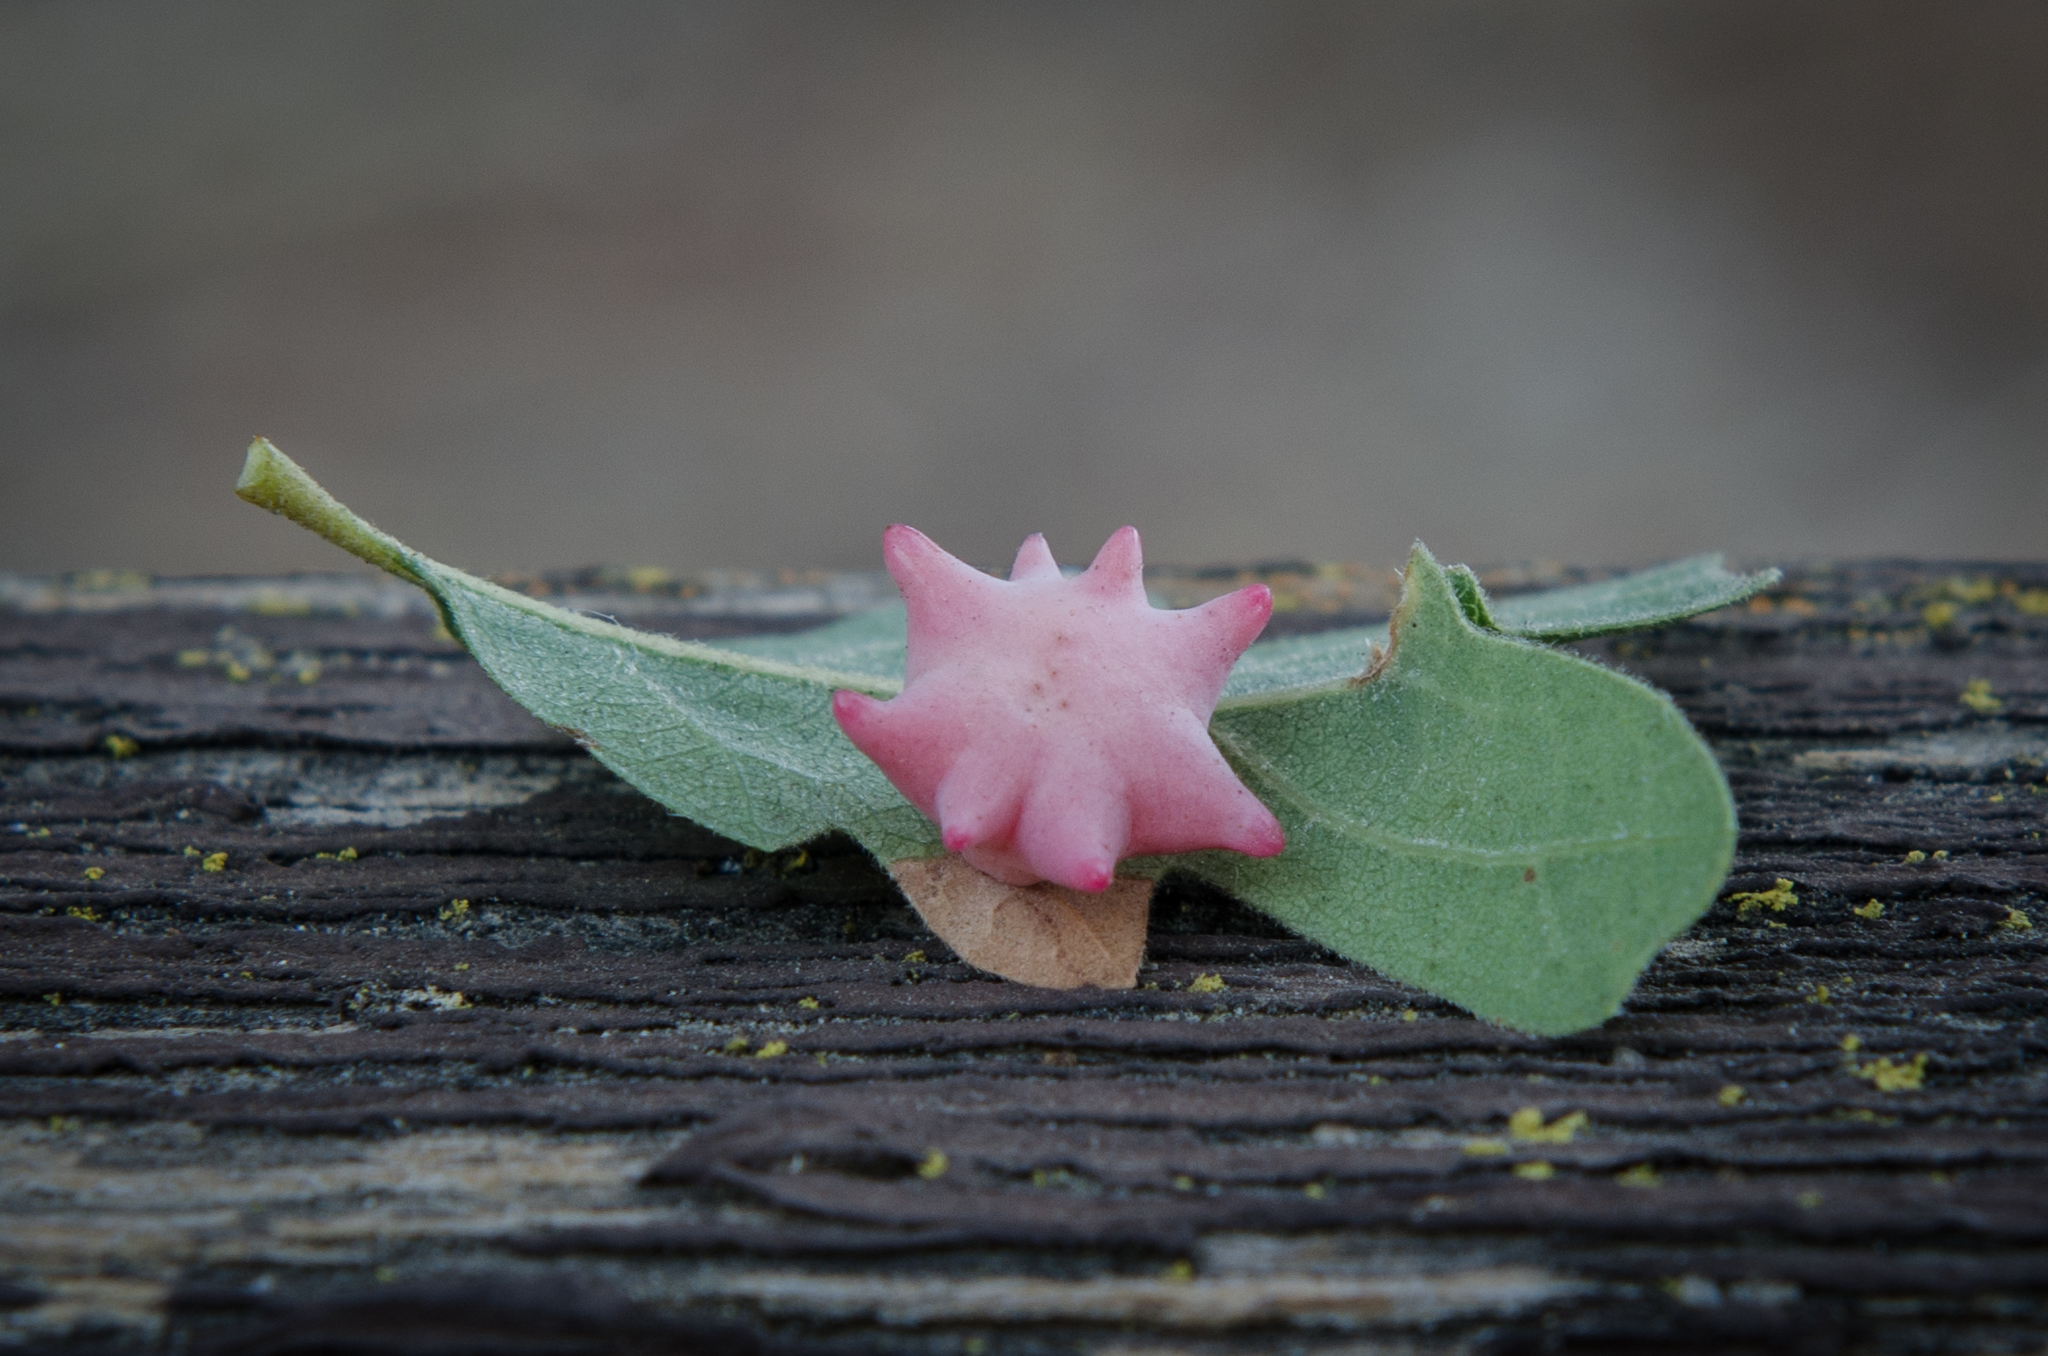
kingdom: Animalia
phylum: Arthropoda
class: Insecta
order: Hymenoptera
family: Cynipidae
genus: Cynips
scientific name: Cynips douglasi
